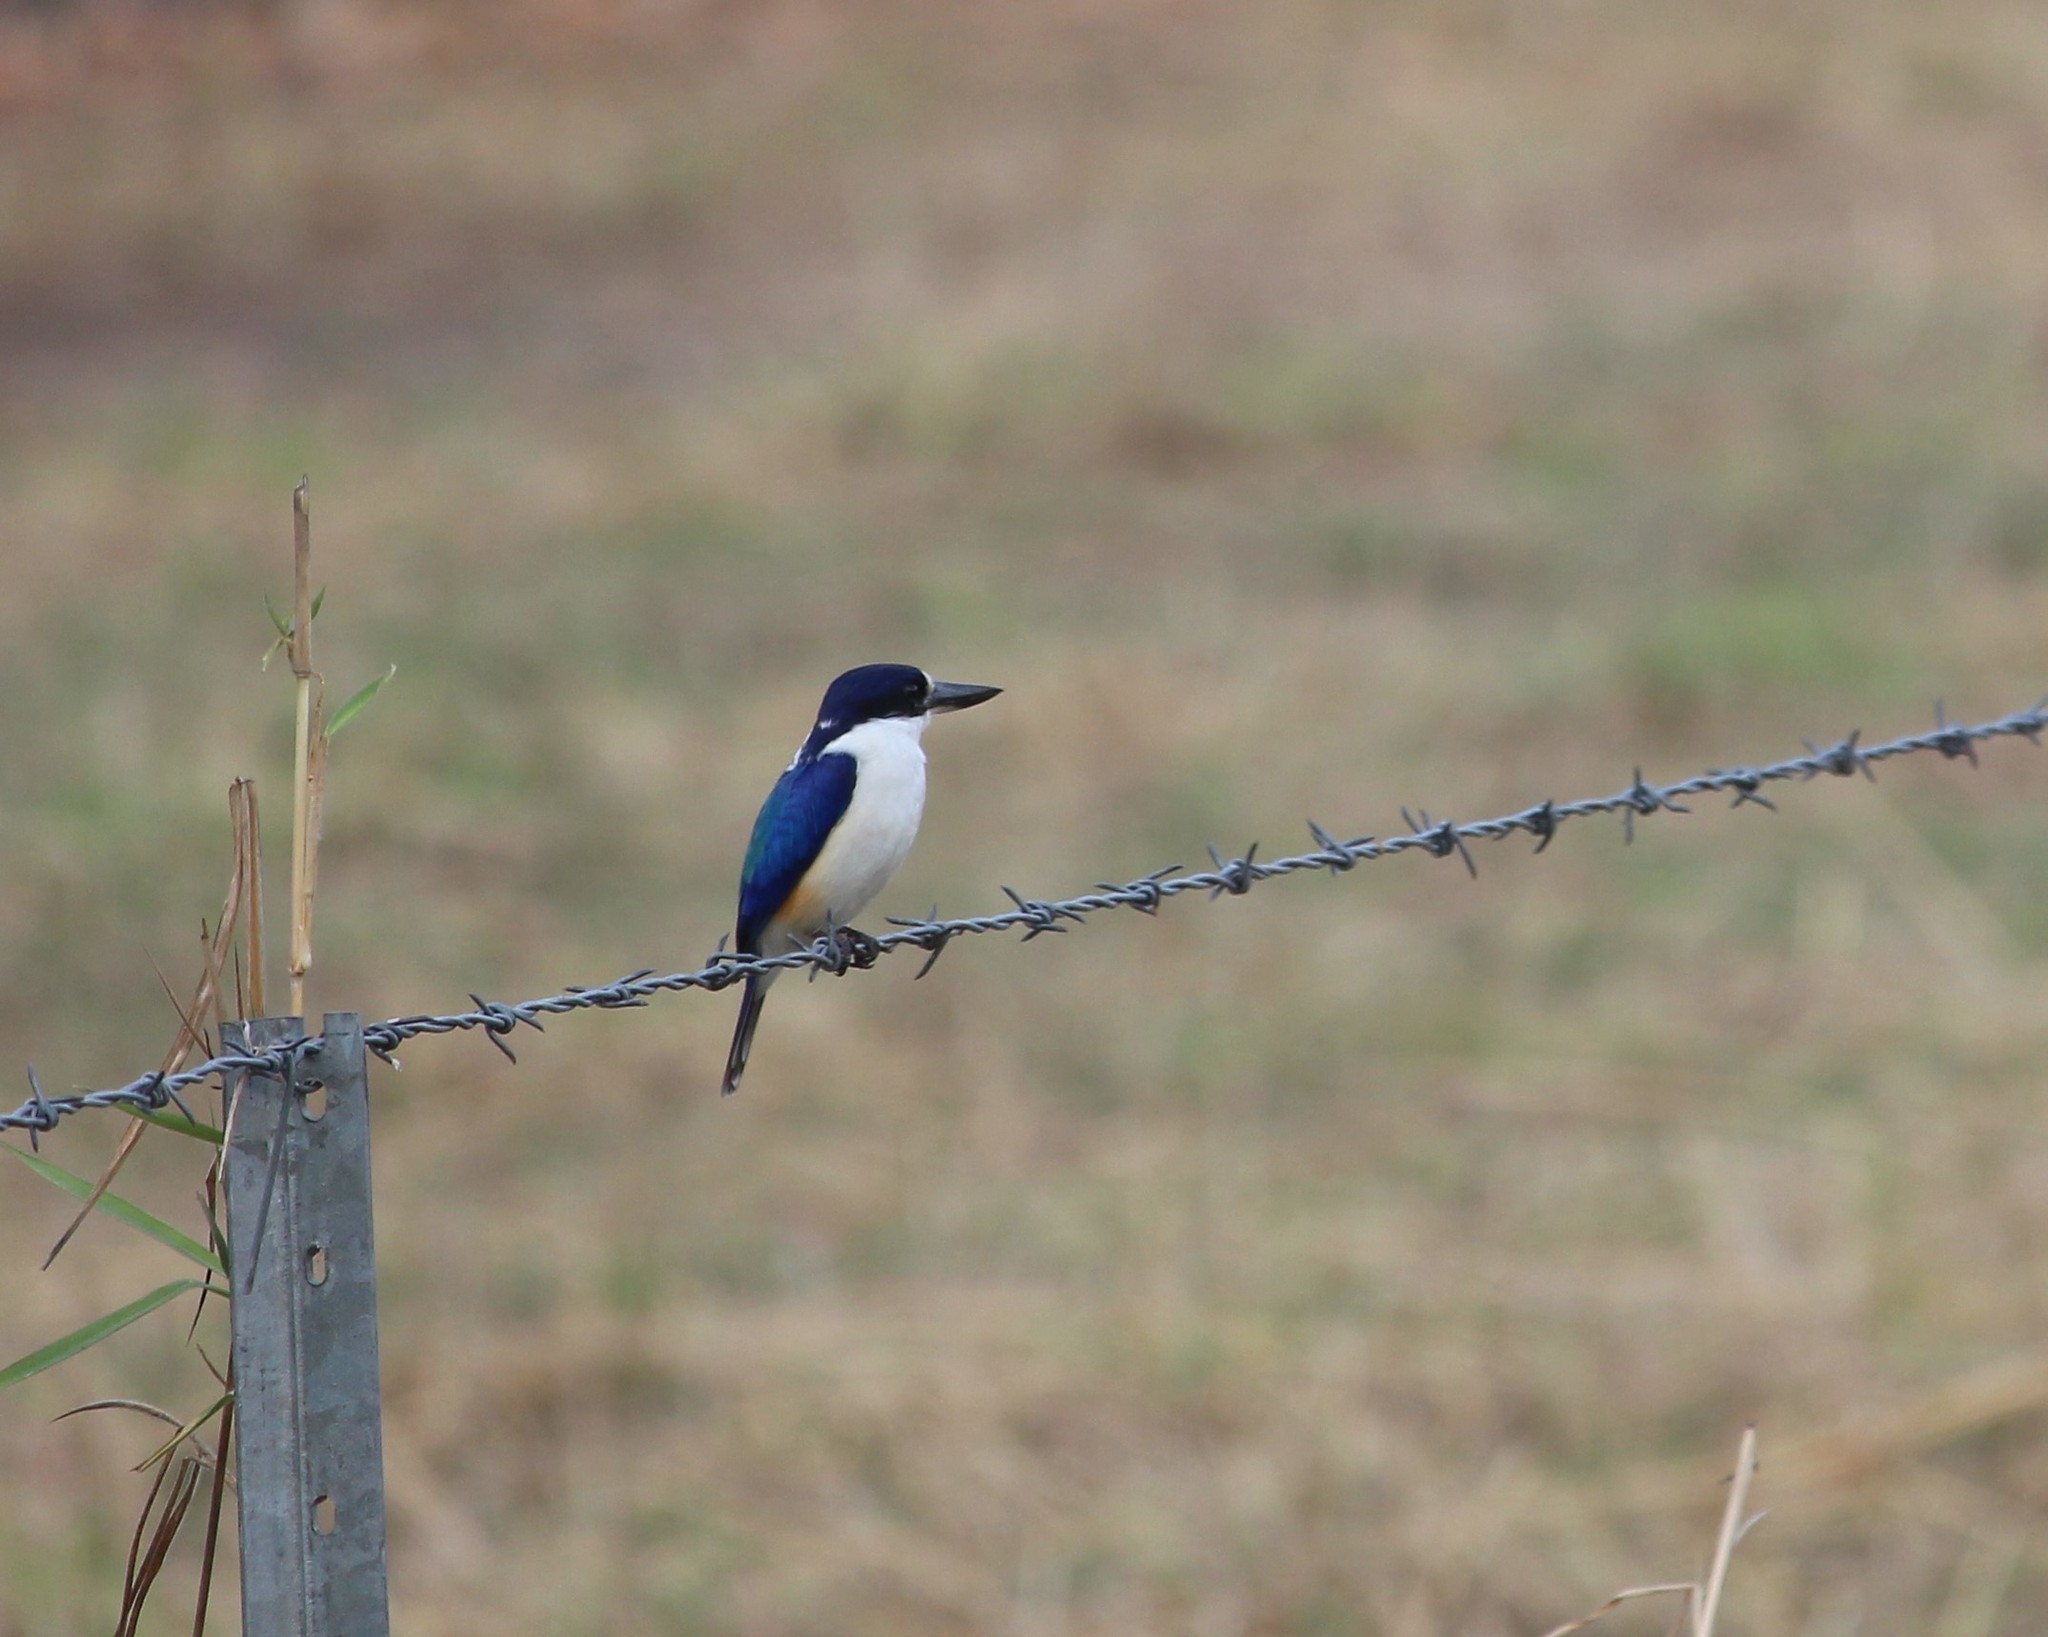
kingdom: Animalia
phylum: Chordata
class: Aves
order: Coraciiformes
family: Alcedinidae
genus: Todiramphus
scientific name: Todiramphus macleayii
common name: Forest kingfisher
